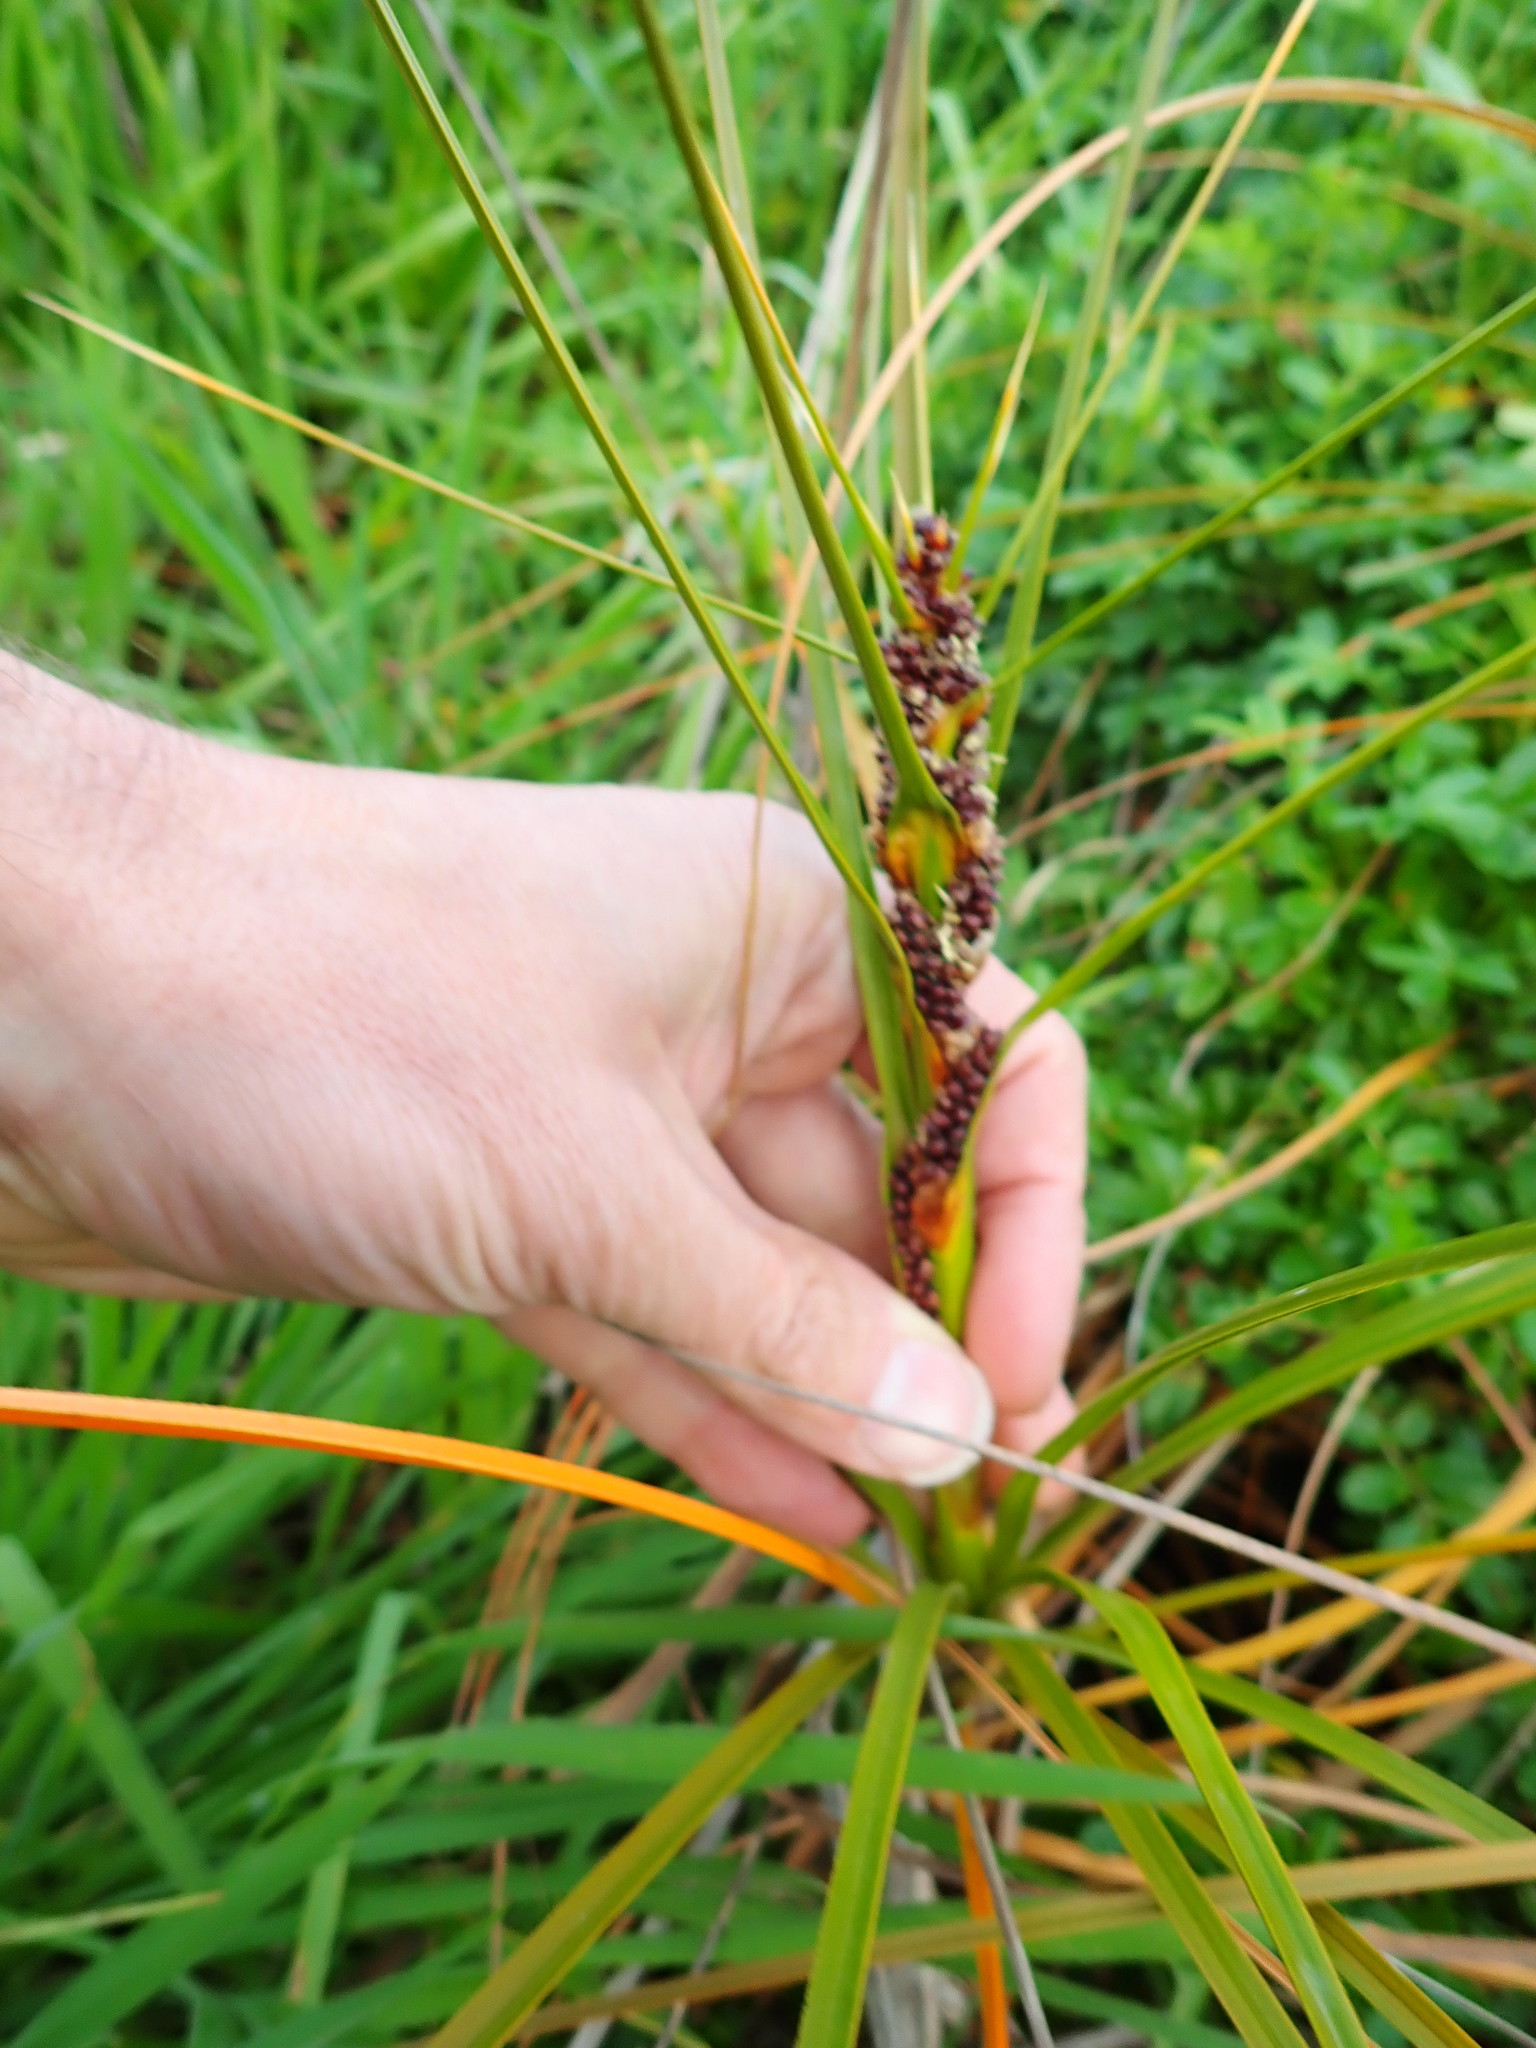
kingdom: Plantae
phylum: Tracheophyta
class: Liliopsida
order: Poales
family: Cyperaceae
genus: Ficinia
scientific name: Ficinia spiralis
